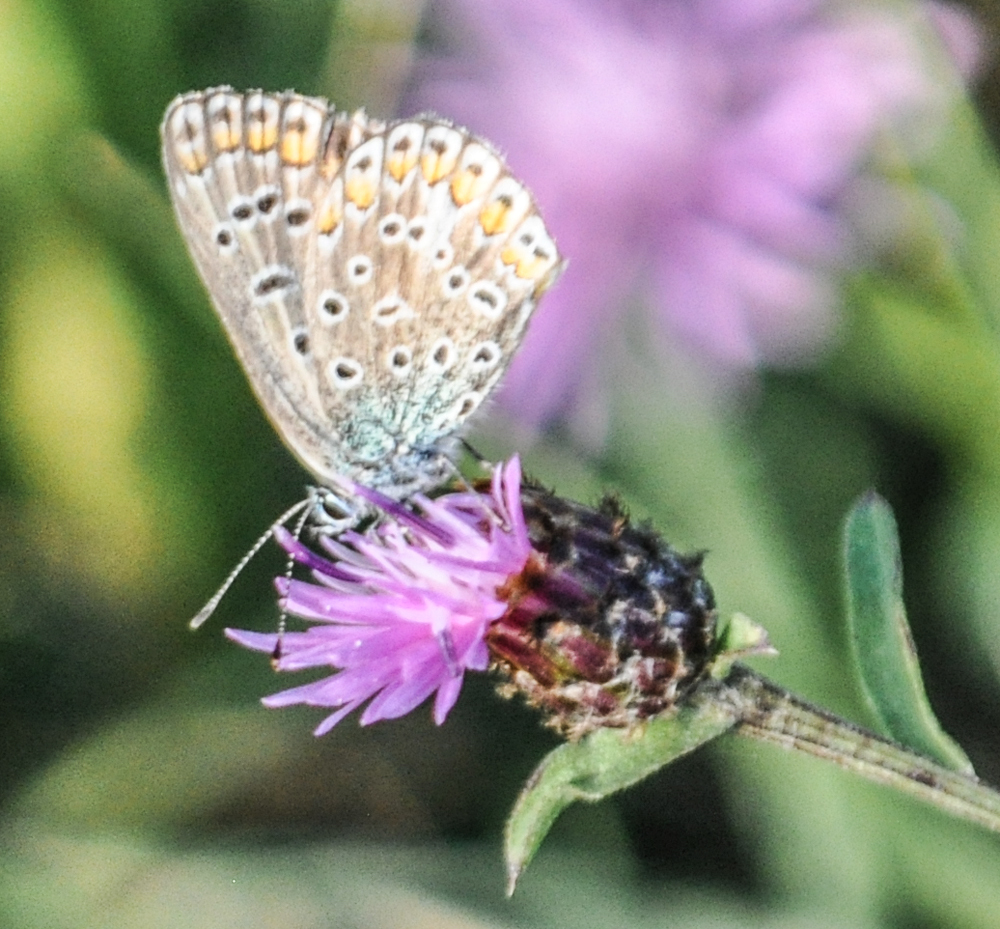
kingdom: Animalia
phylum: Arthropoda
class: Insecta
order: Lepidoptera
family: Lycaenidae
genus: Polyommatus
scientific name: Polyommatus icarus
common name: Common blue
